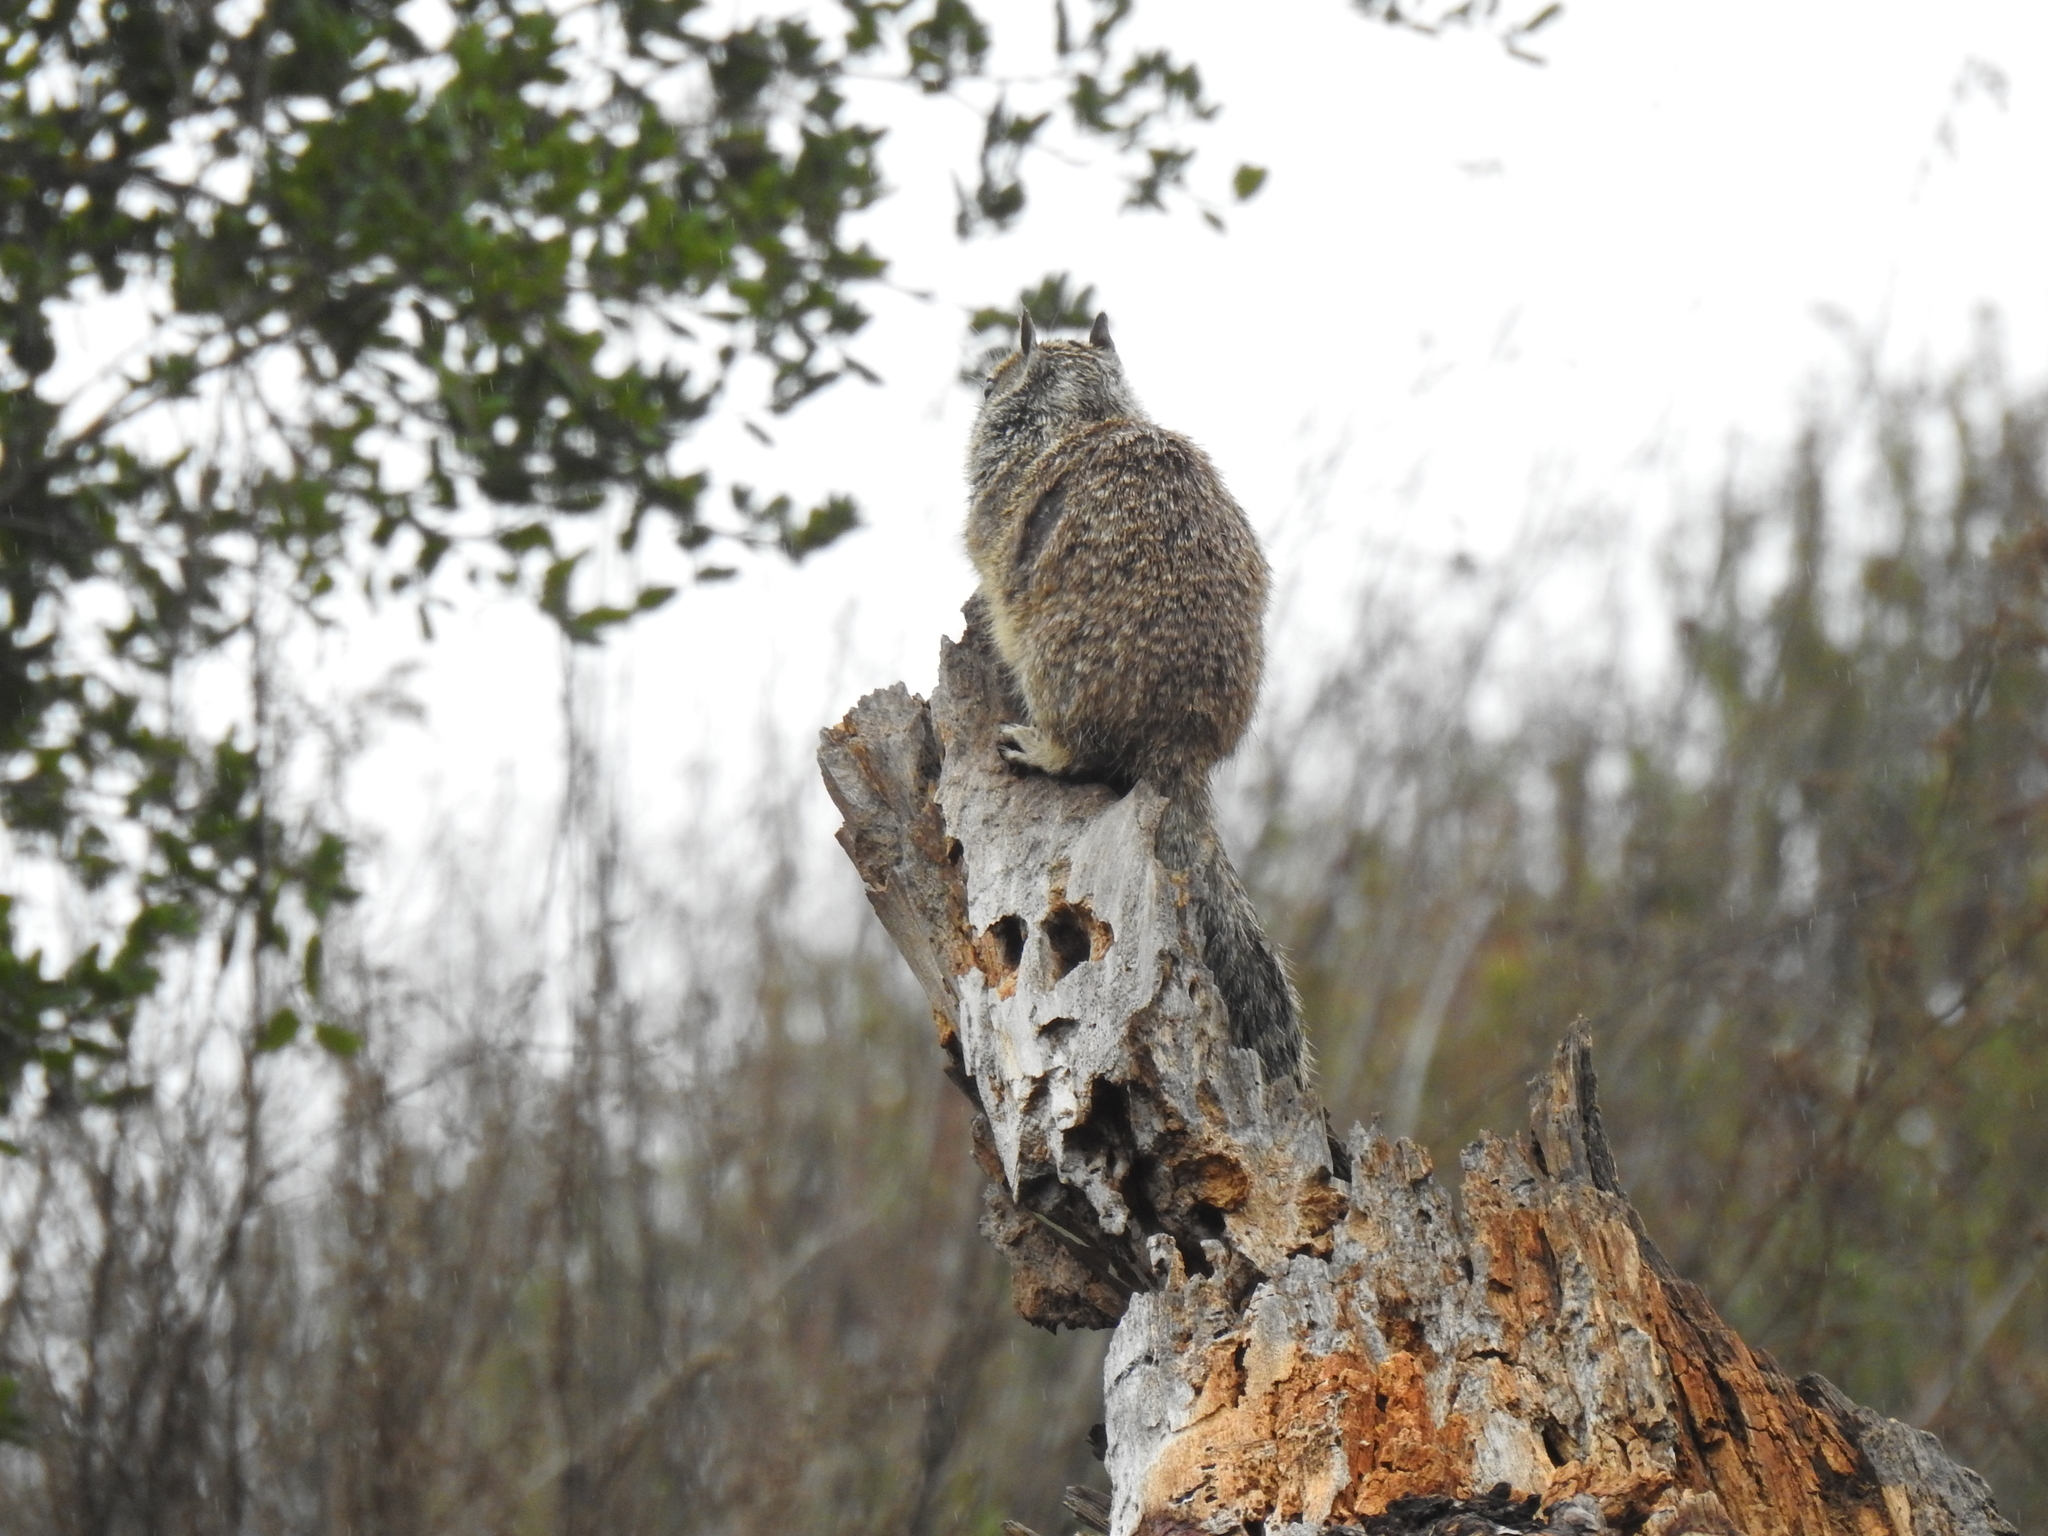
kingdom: Animalia
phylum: Chordata
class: Mammalia
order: Rodentia
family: Sciuridae
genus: Otospermophilus
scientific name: Otospermophilus beecheyi
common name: California ground squirrel
